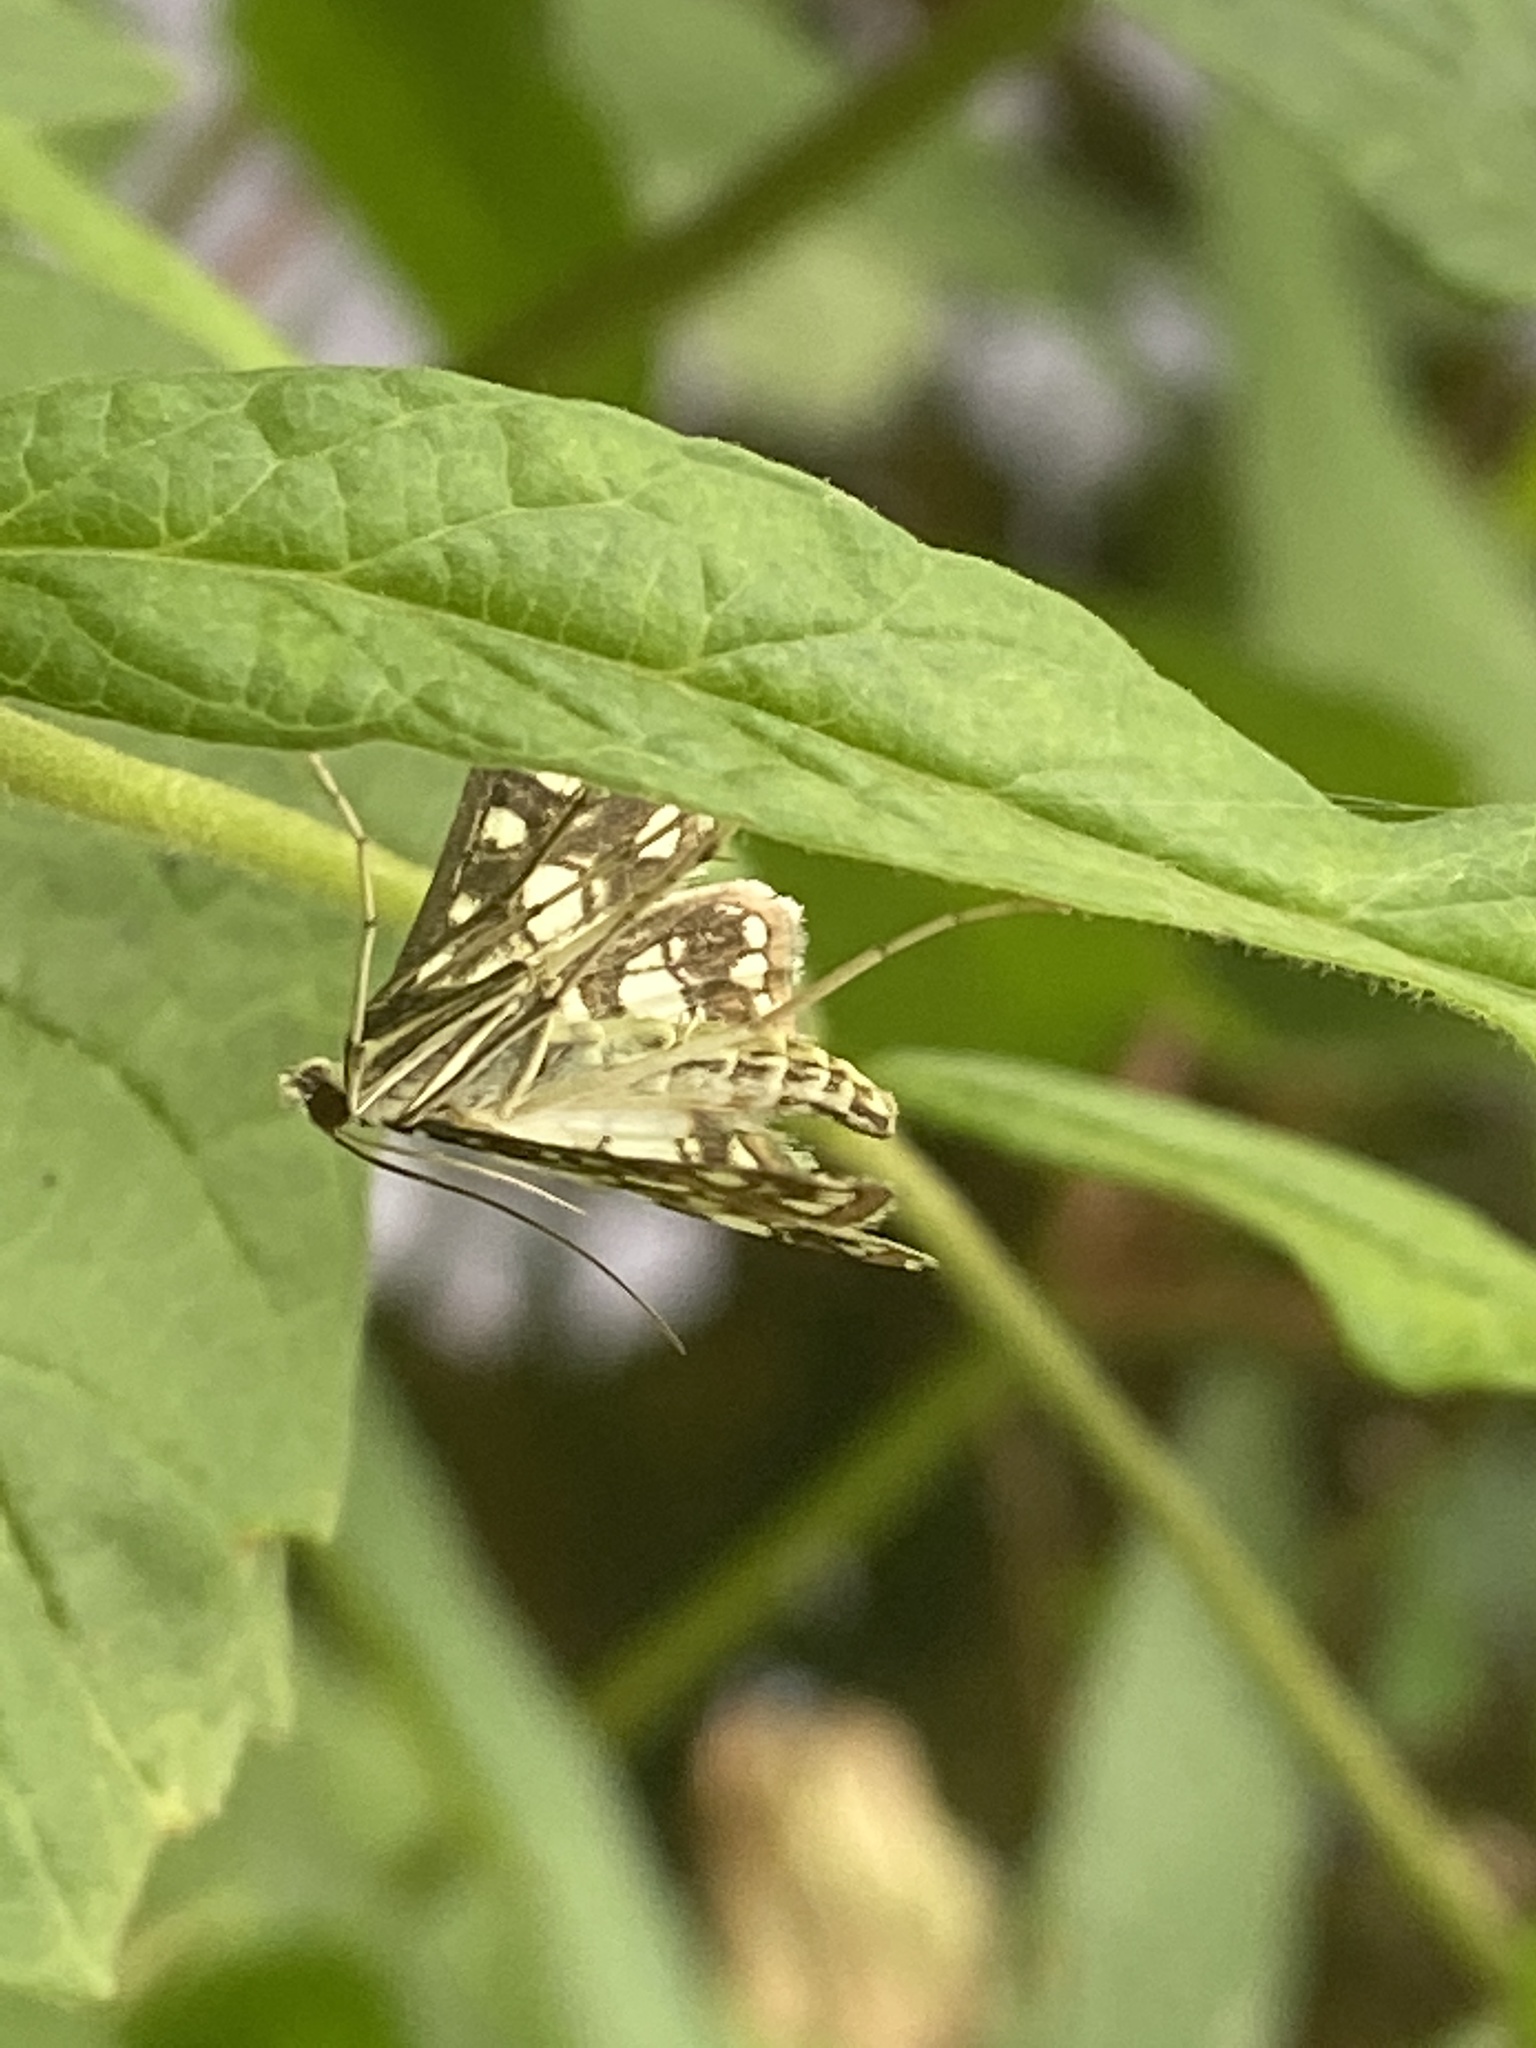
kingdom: Animalia
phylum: Arthropoda
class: Insecta
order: Lepidoptera
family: Crambidae
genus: Elophila
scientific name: Elophila nymphaeata
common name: Brown china-mark
